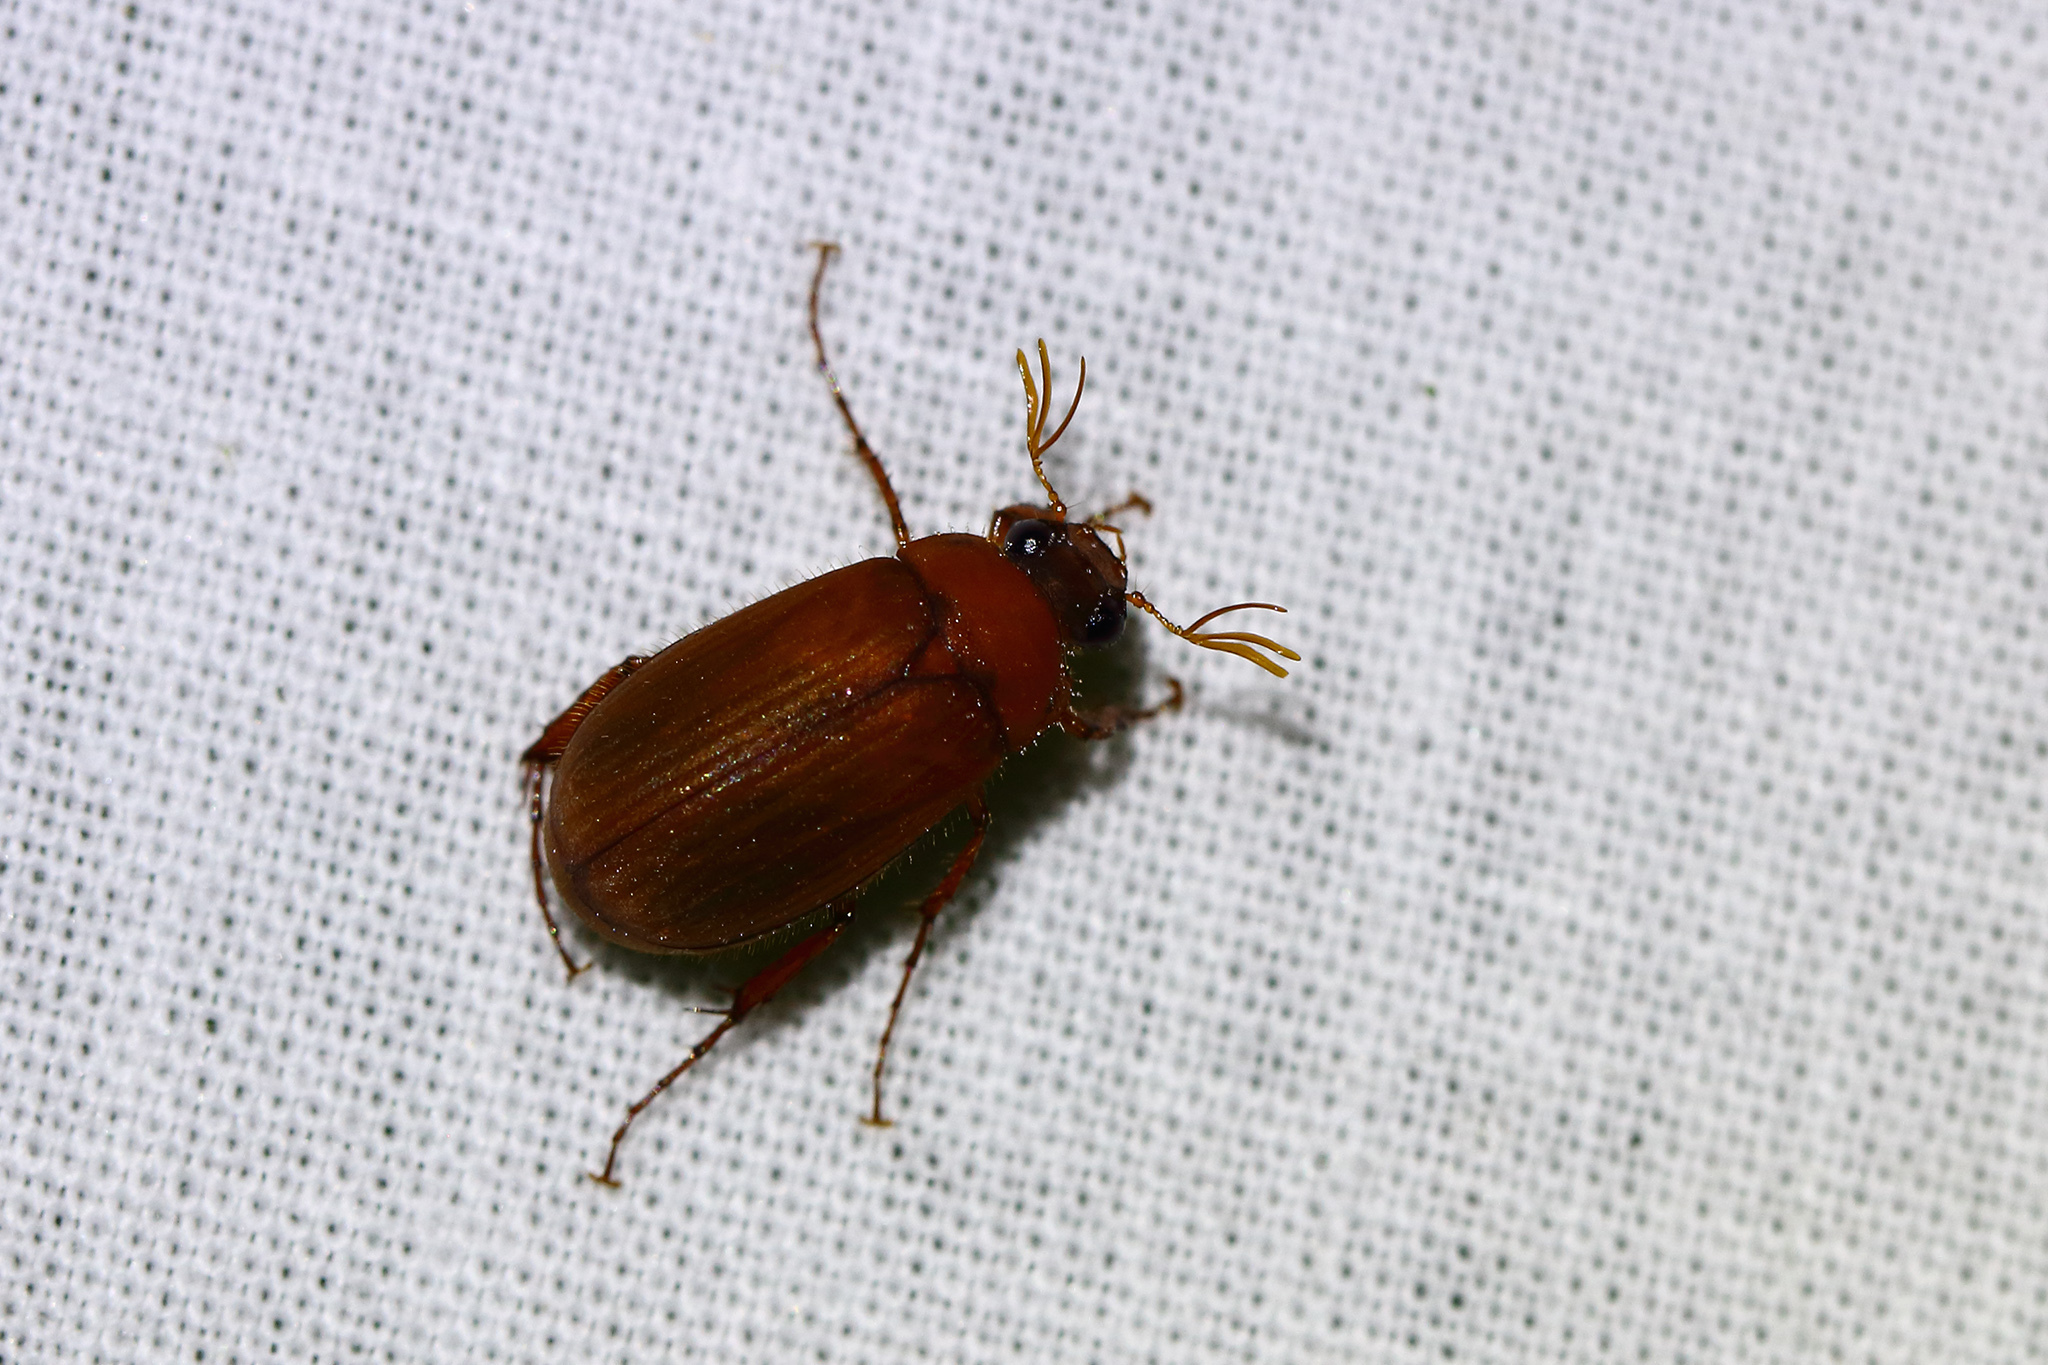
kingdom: Animalia
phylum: Arthropoda
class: Insecta
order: Coleoptera
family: Scarabaeidae
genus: Serica
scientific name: Serica brunnea
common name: Brown chafer
